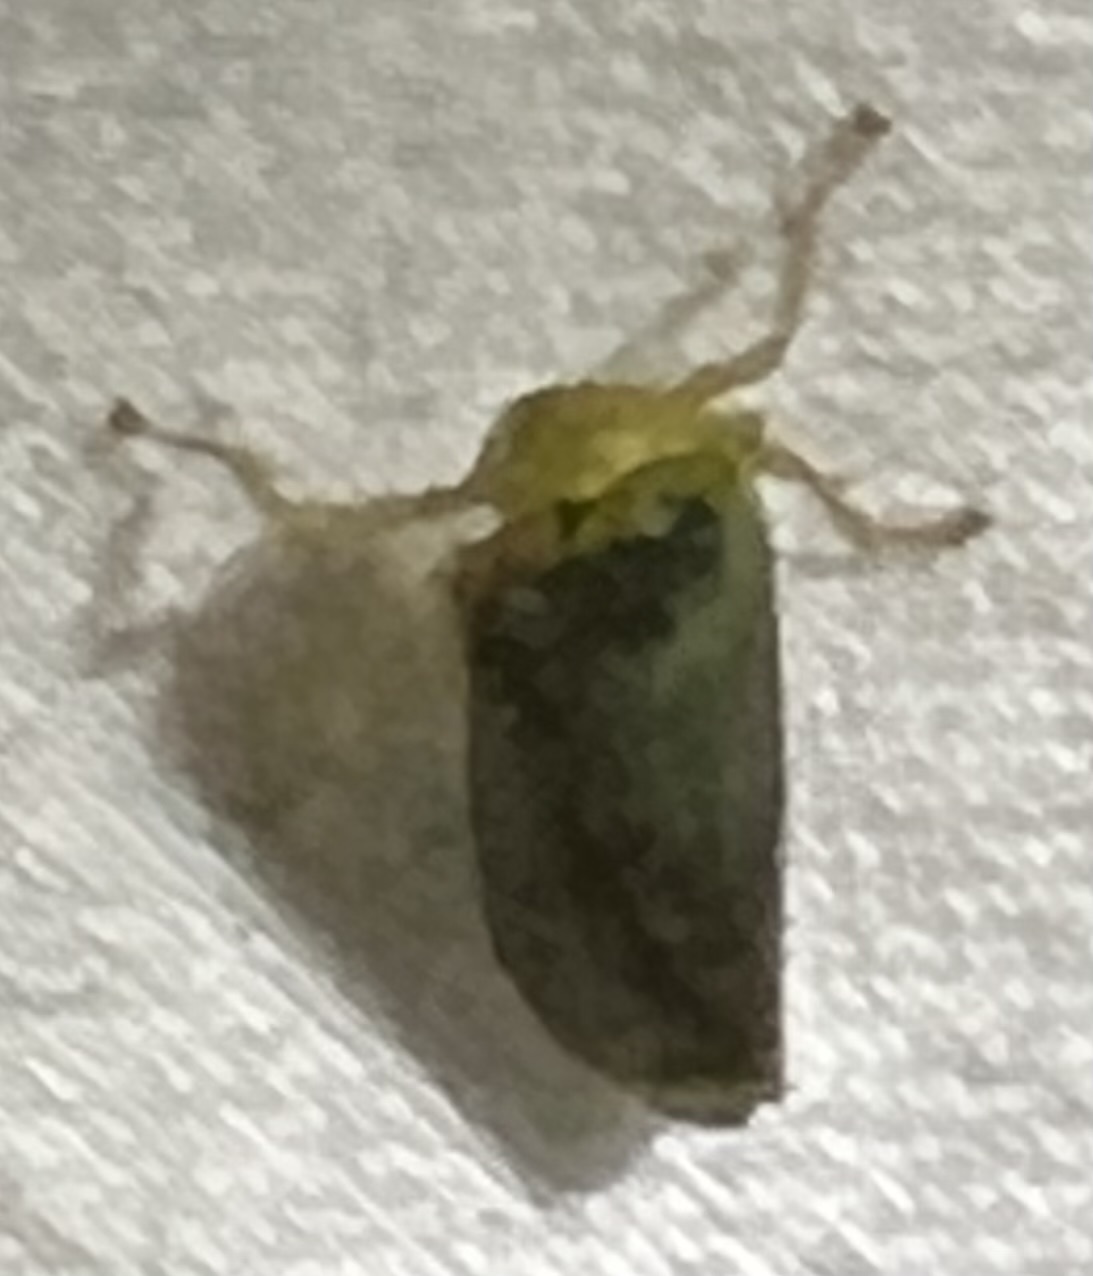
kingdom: Animalia
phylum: Arthropoda
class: Insecta
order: Hemiptera
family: Cicadellidae
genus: Jikradia
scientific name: Jikradia olitoria
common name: Coppery leafhopper
